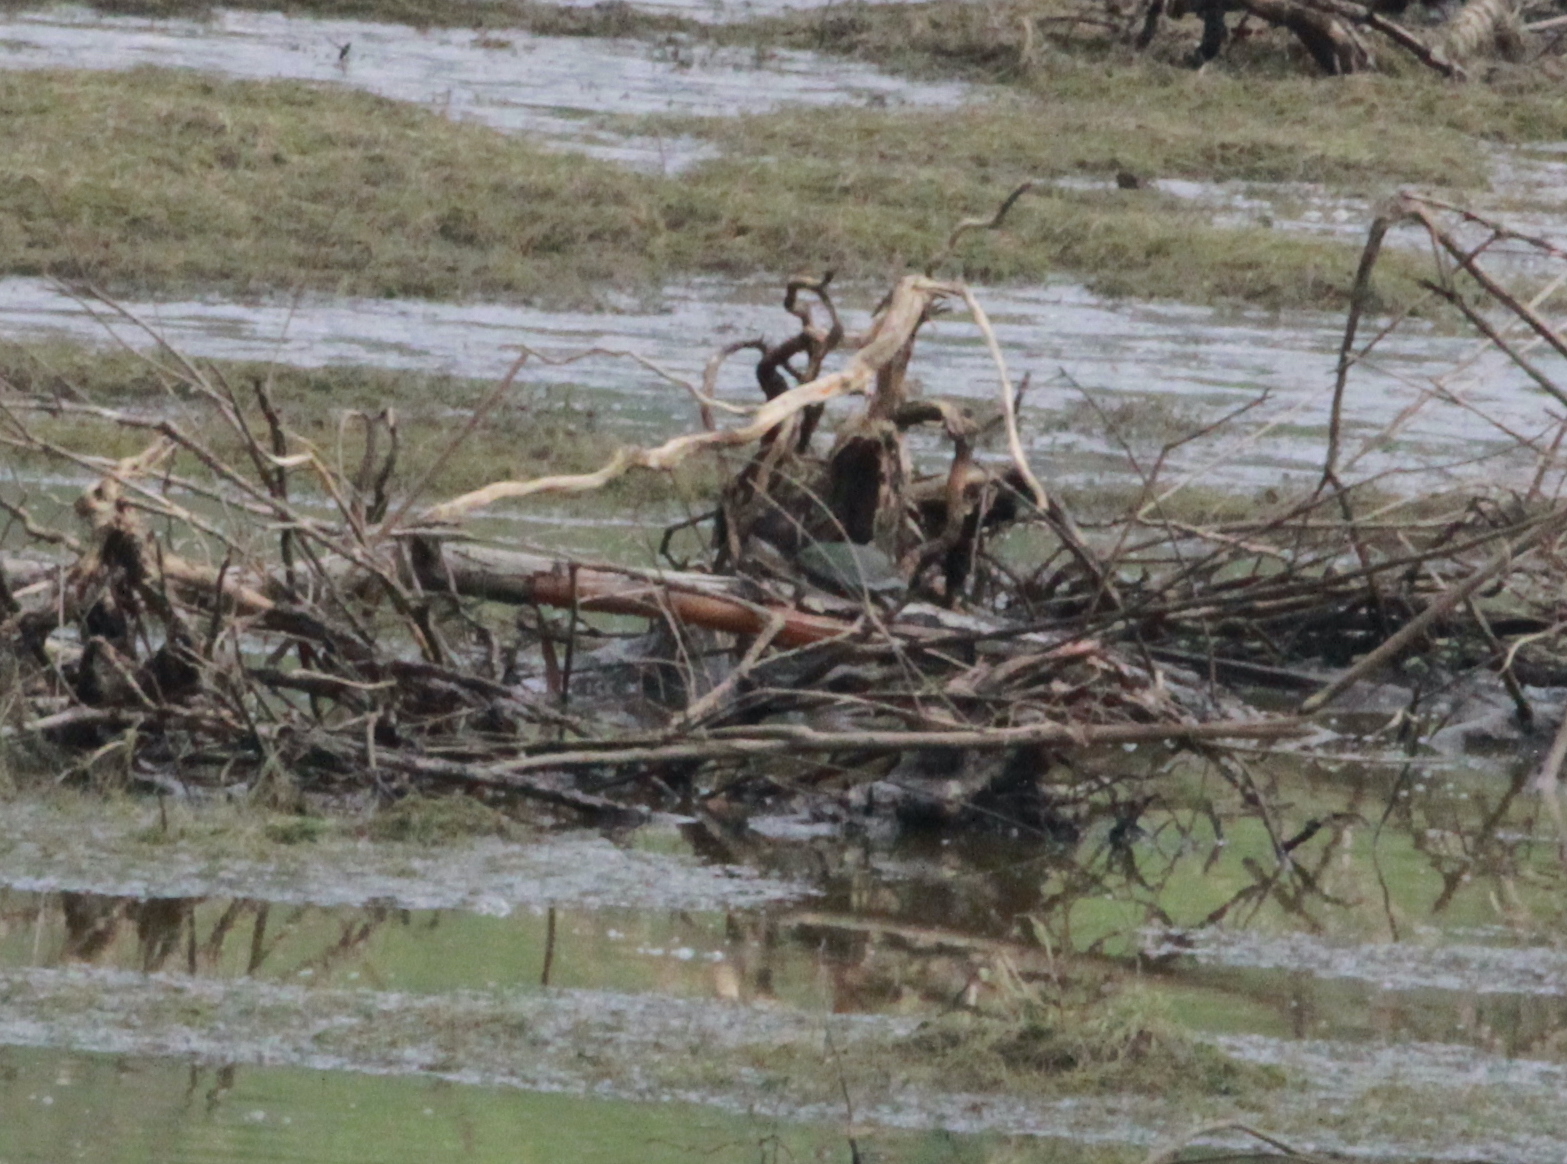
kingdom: Animalia
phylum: Chordata
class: Testudines
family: Kinosternidae
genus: Kinosternon
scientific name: Kinosternon integrum
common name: Mexican mud turtle
